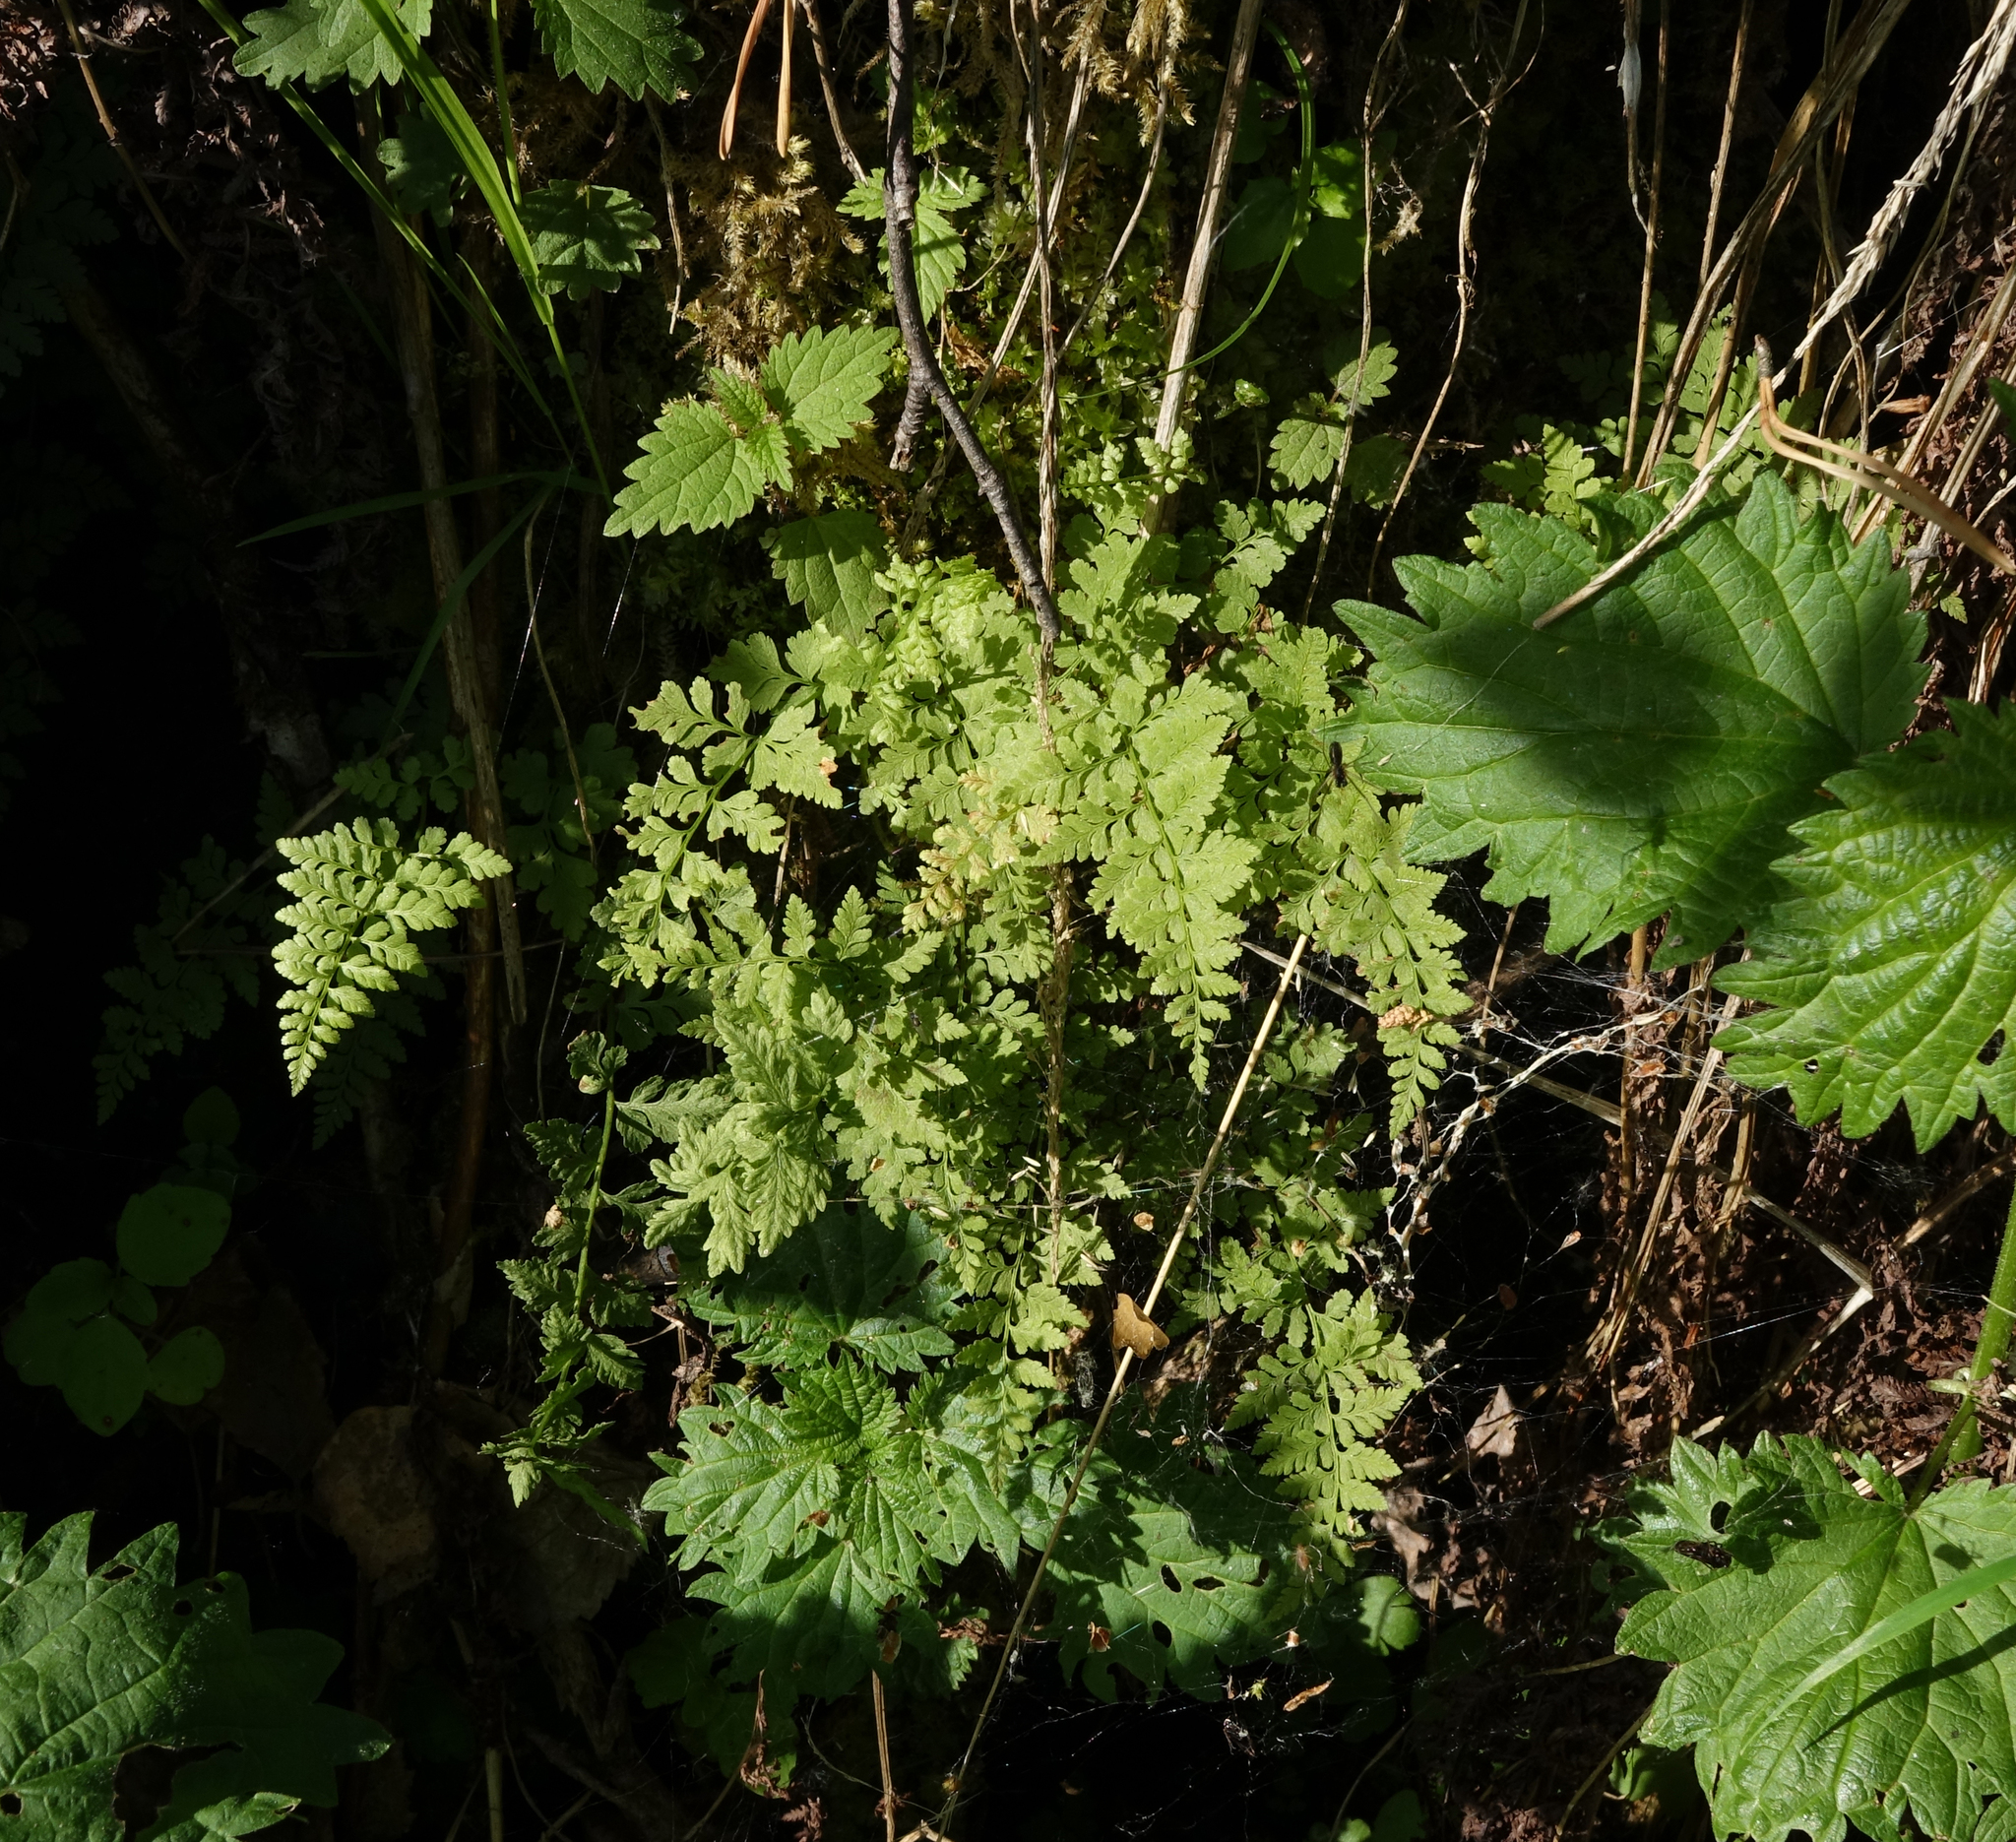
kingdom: Plantae
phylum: Tracheophyta
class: Polypodiopsida
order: Polypodiales
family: Cystopteridaceae
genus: Cystopteris
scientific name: Cystopteris fragilis
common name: Brittle bladder fern
